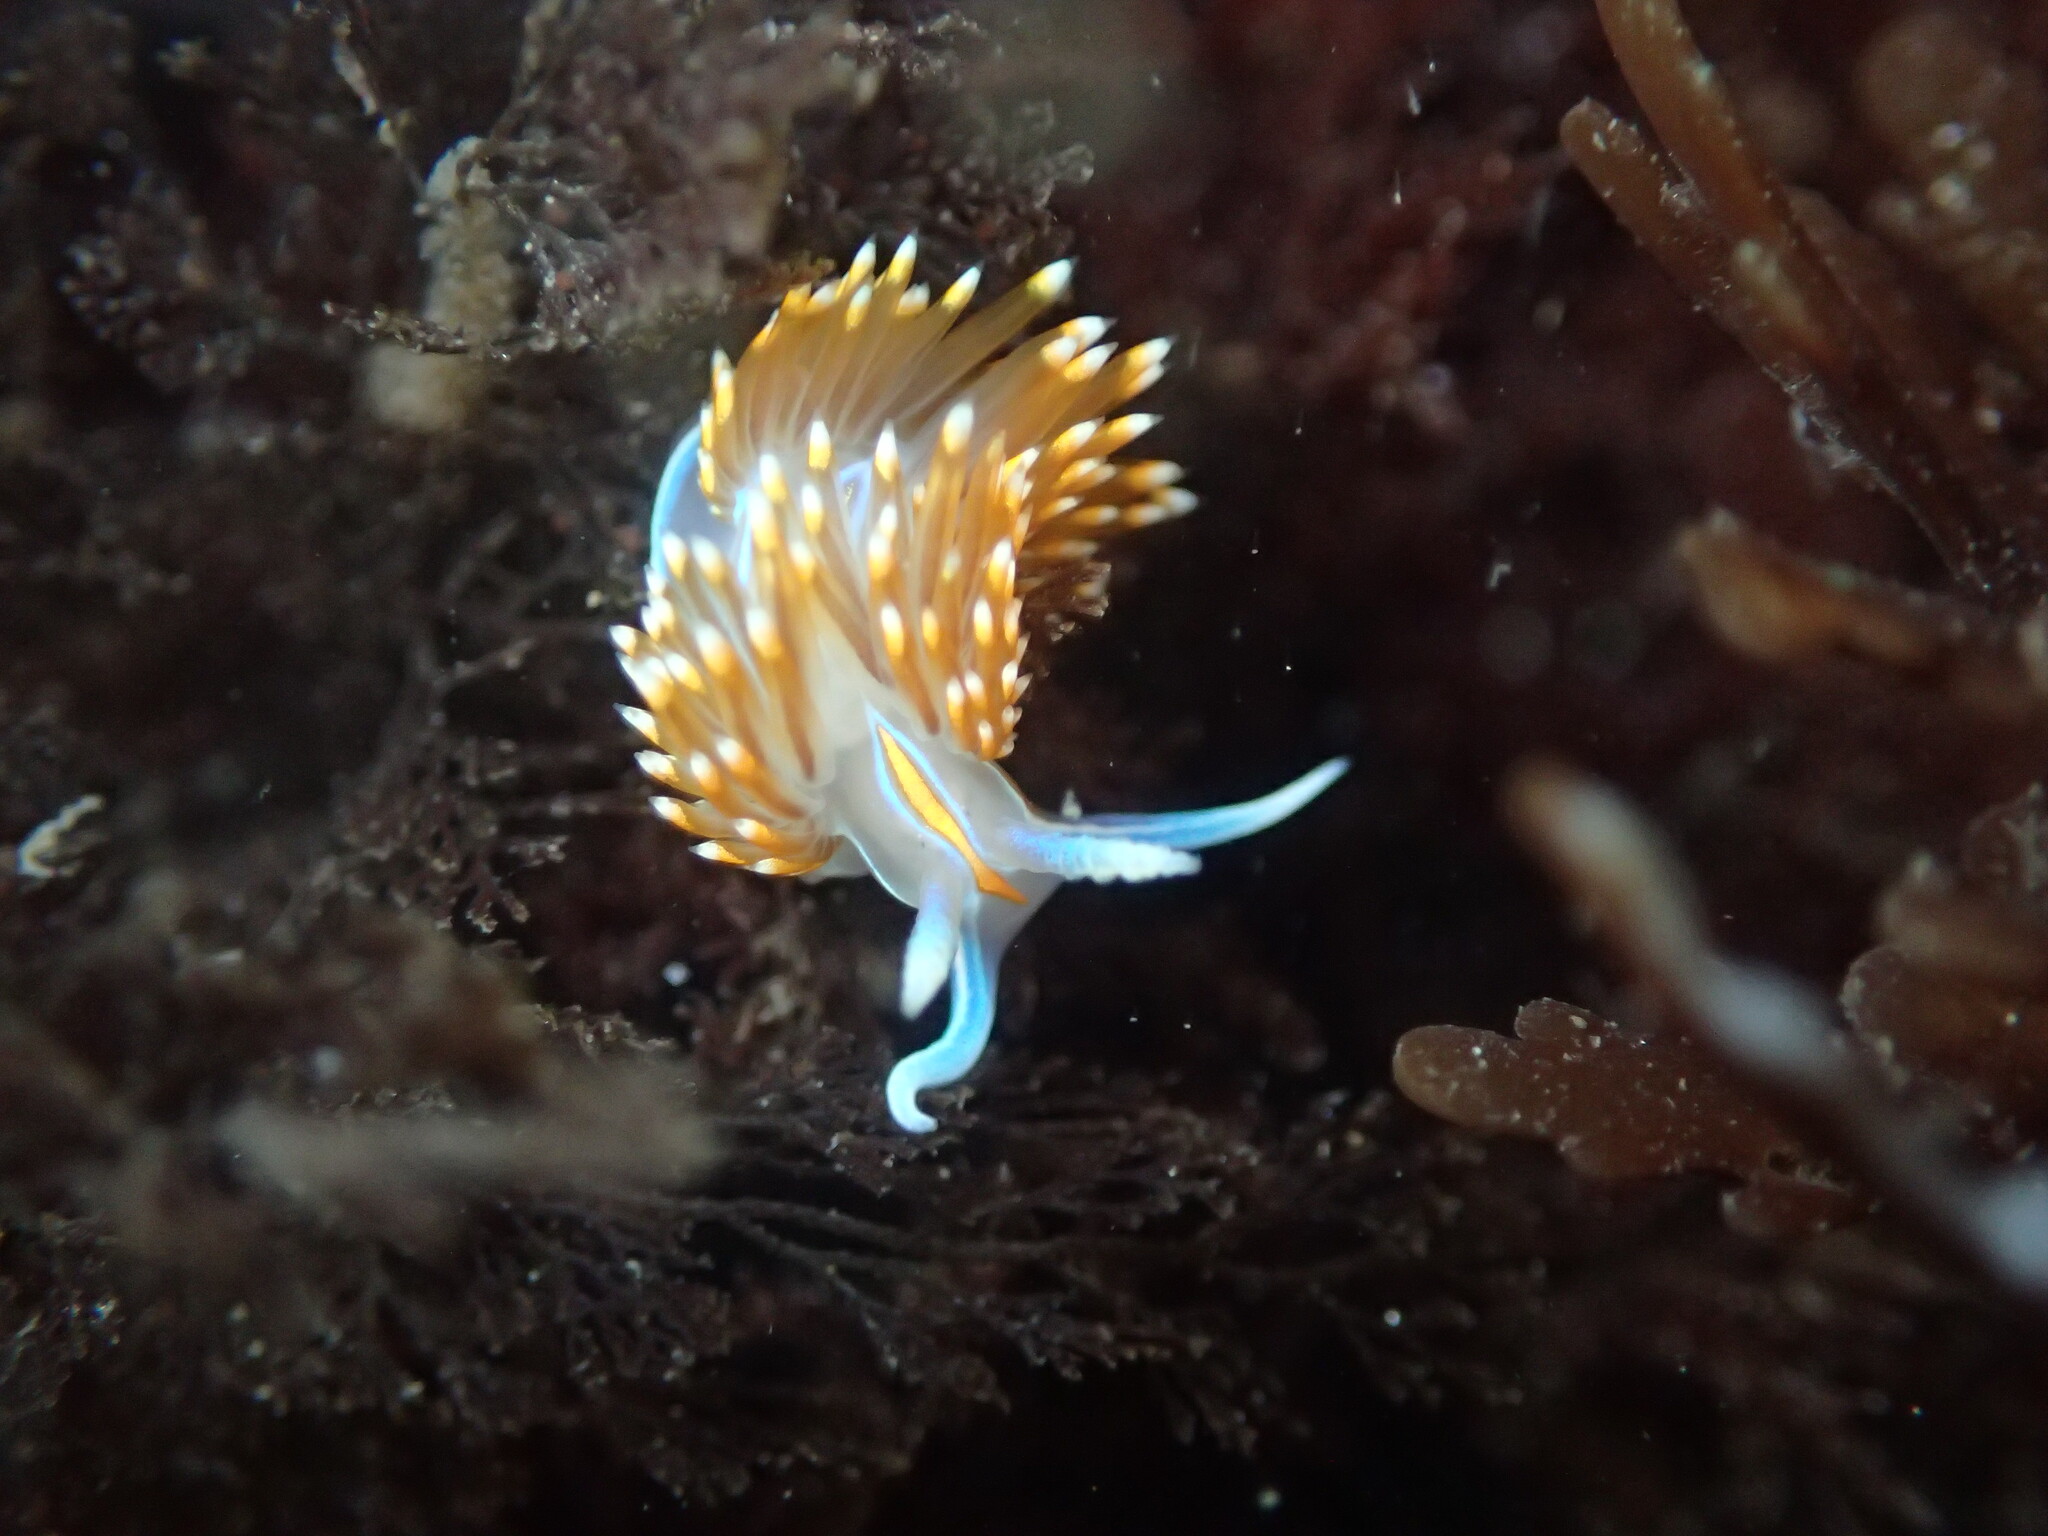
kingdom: Animalia
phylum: Mollusca
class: Gastropoda
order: Nudibranchia
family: Myrrhinidae
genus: Hermissenda
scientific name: Hermissenda opalescens
